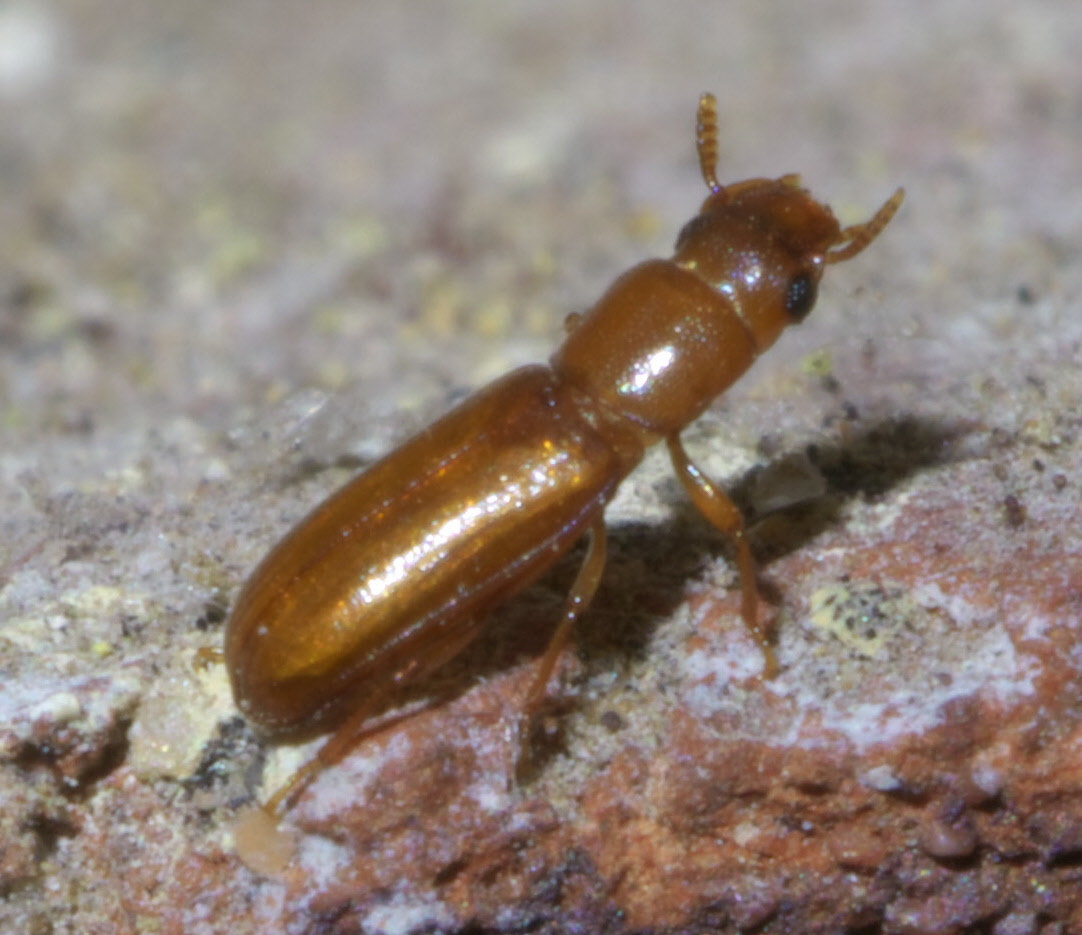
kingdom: Animalia
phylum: Arthropoda
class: Insecta
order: Coleoptera
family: Tenebrionidae
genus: Latheticus
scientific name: Latheticus oryzae
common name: Long-headed flour beetle
